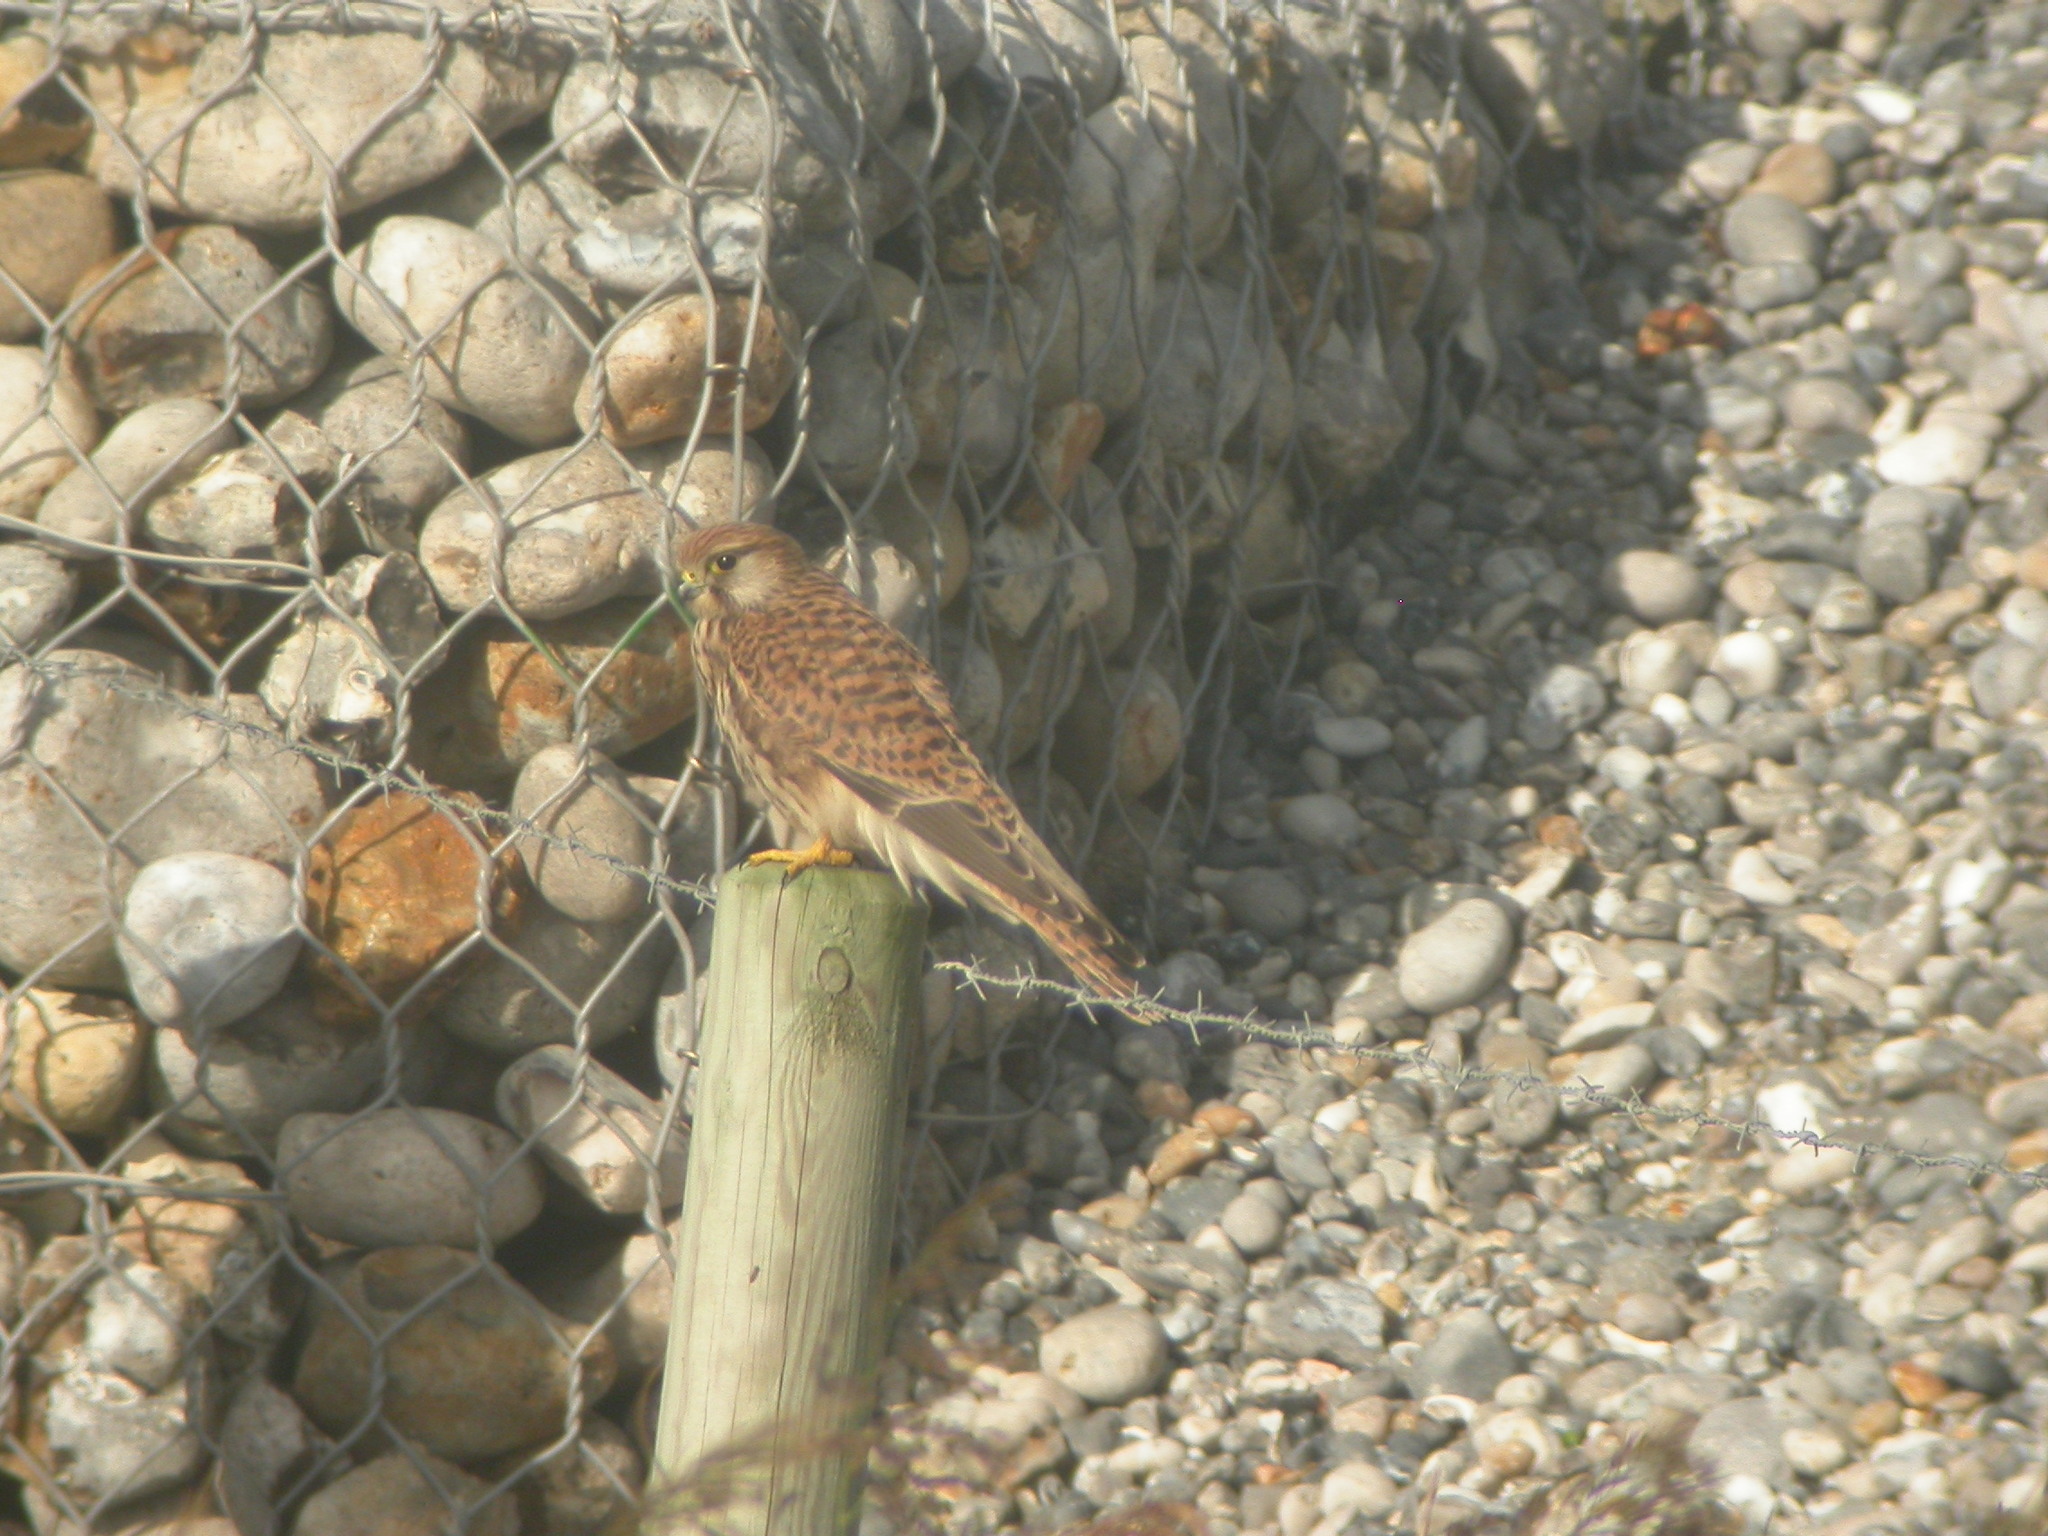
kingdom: Animalia
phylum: Chordata
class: Aves
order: Falconiformes
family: Falconidae
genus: Falco
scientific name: Falco tinnunculus
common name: Common kestrel
